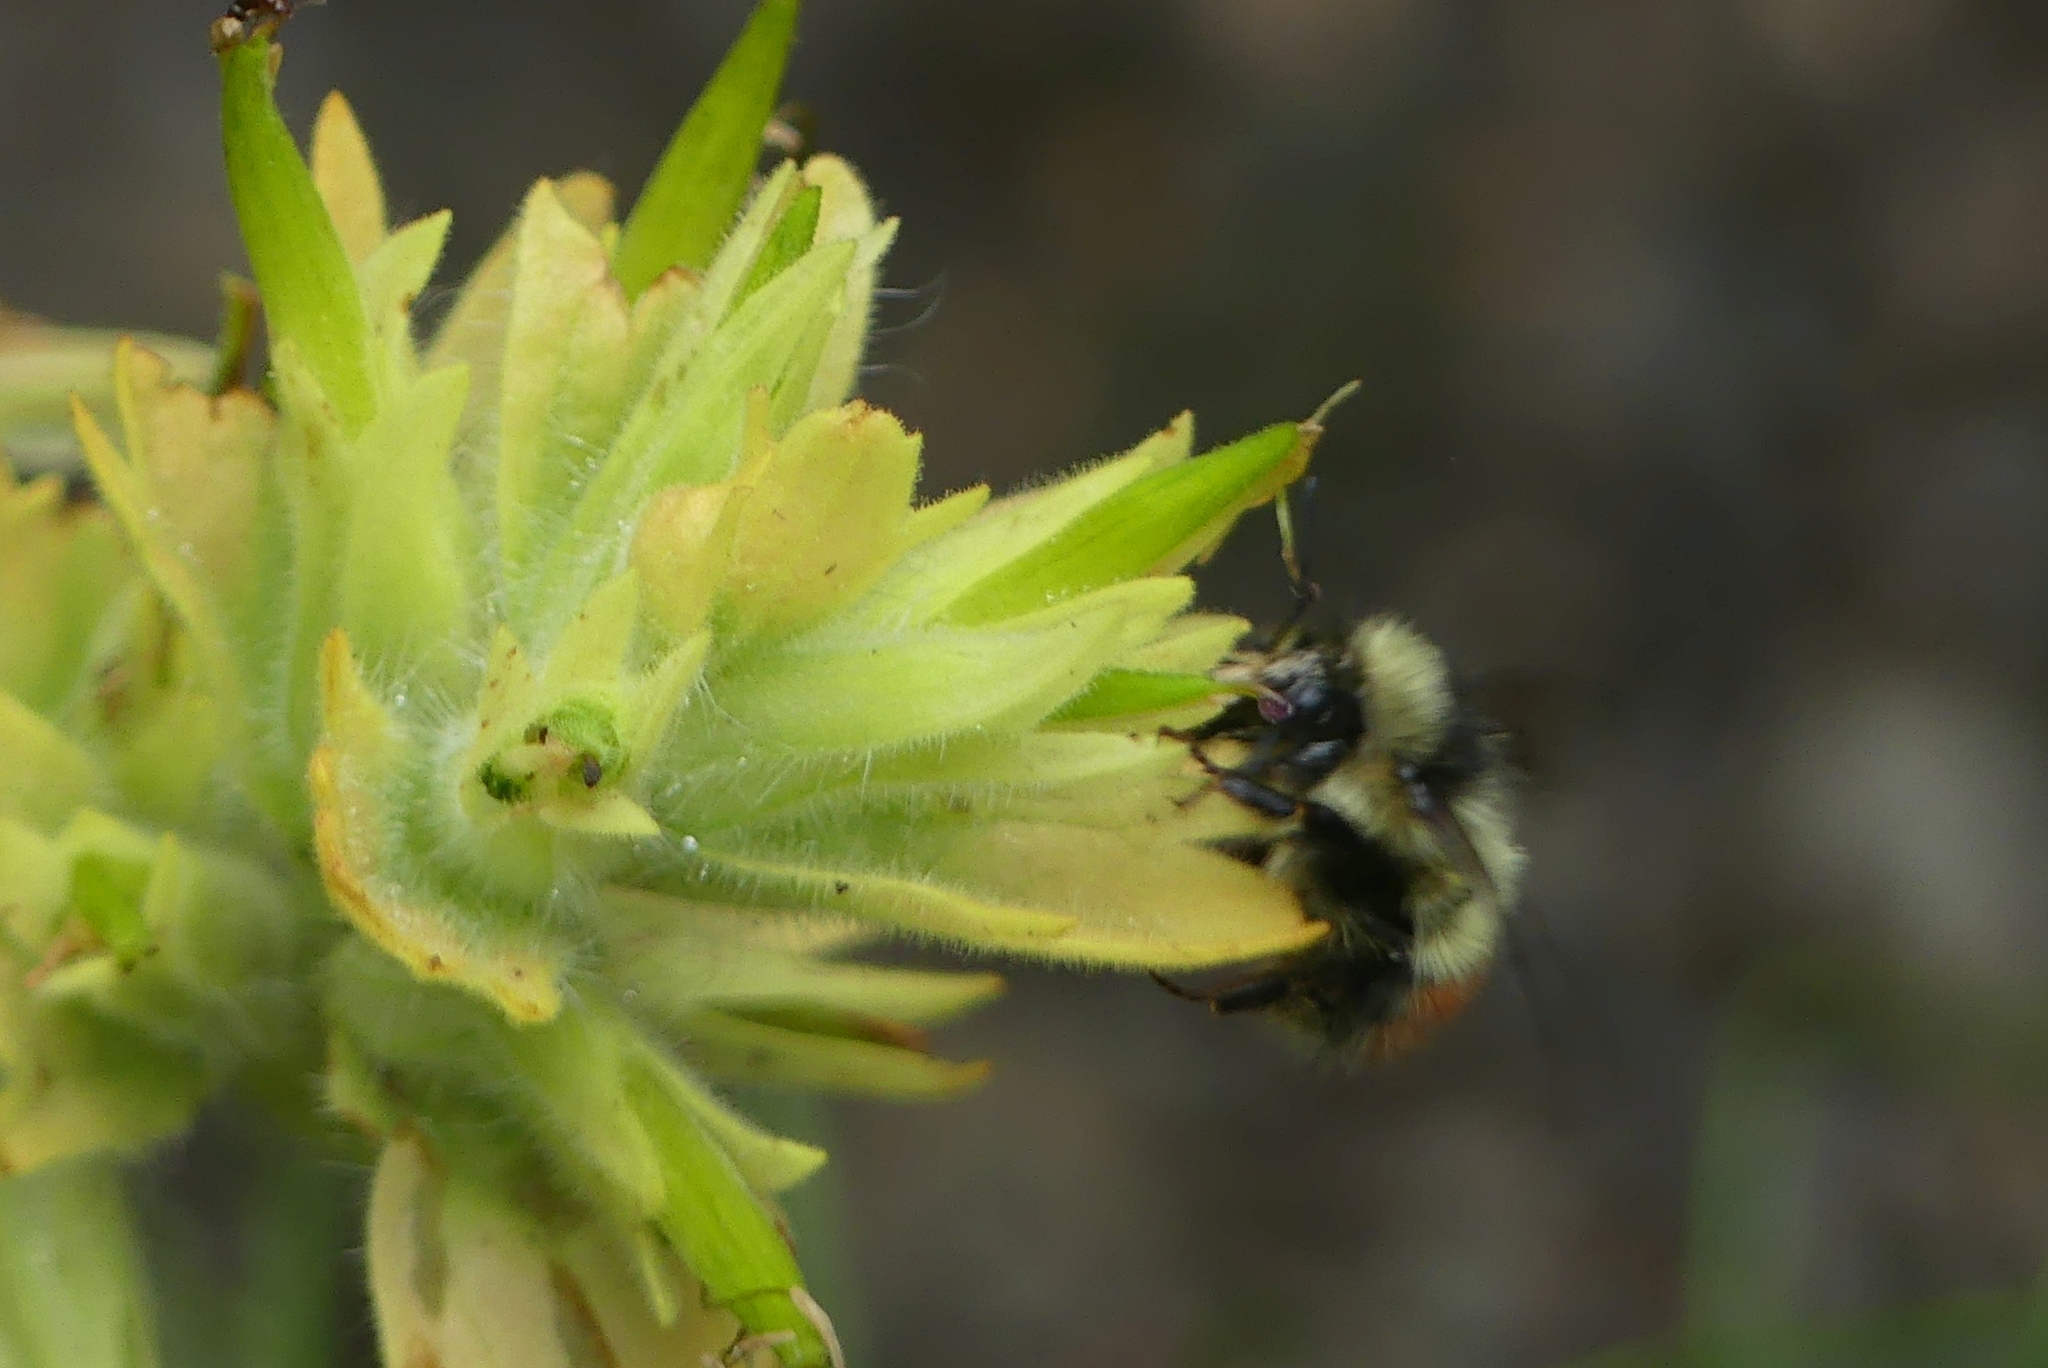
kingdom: Animalia
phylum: Arthropoda
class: Insecta
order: Hymenoptera
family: Apidae
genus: Bombus
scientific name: Bombus flavifrons
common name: Yellow head bumble bee
